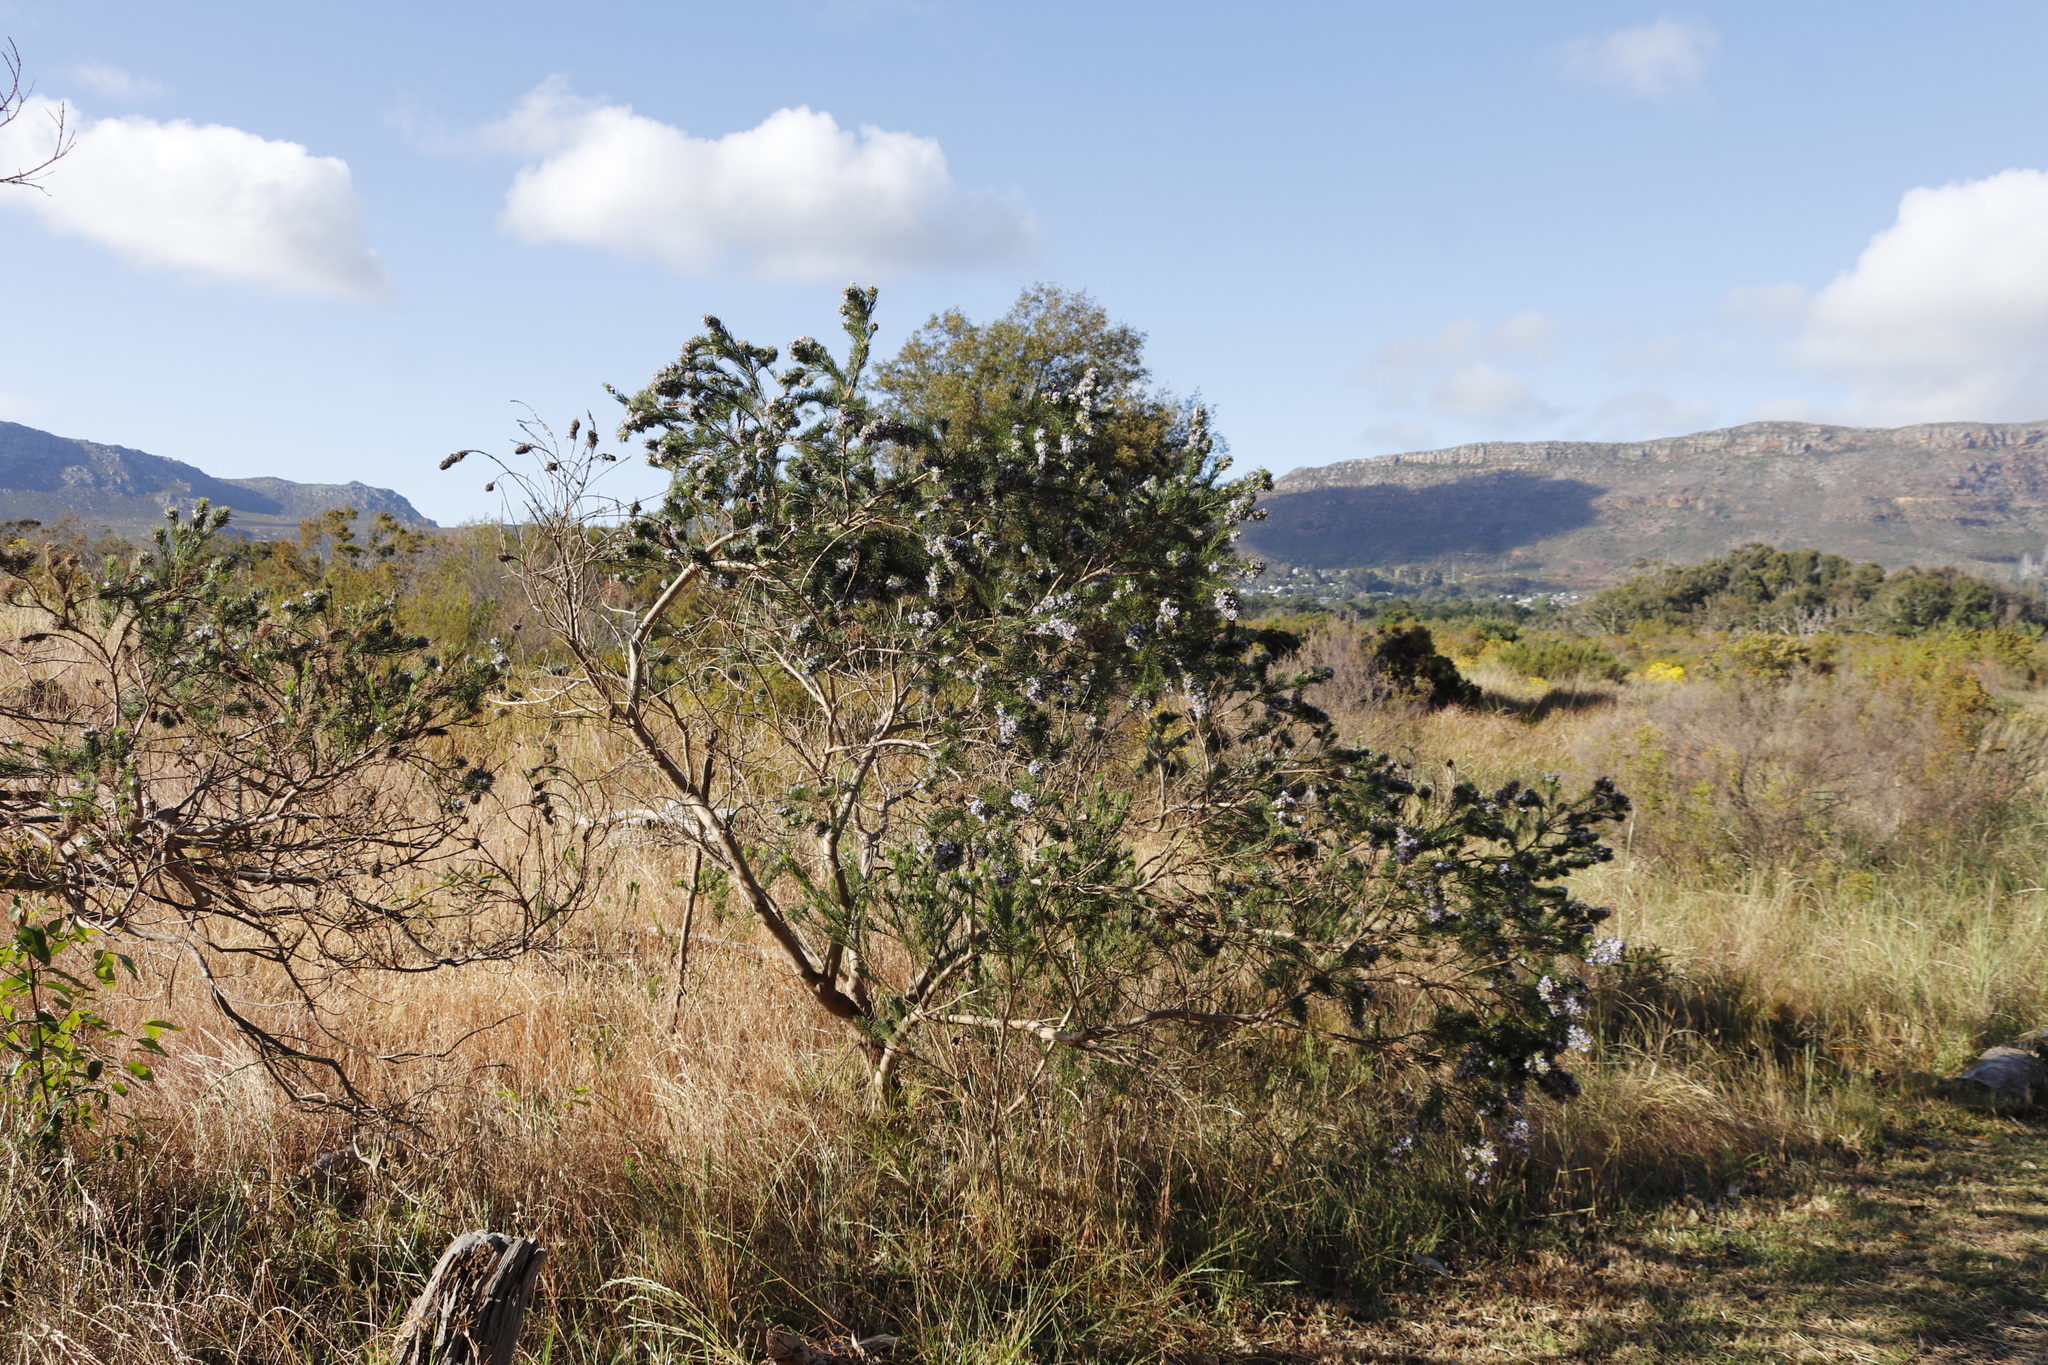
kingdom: Plantae
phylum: Tracheophyta
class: Magnoliopsida
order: Fabales
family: Fabaceae
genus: Psoralea
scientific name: Psoralea pinnata
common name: African scurfpea
